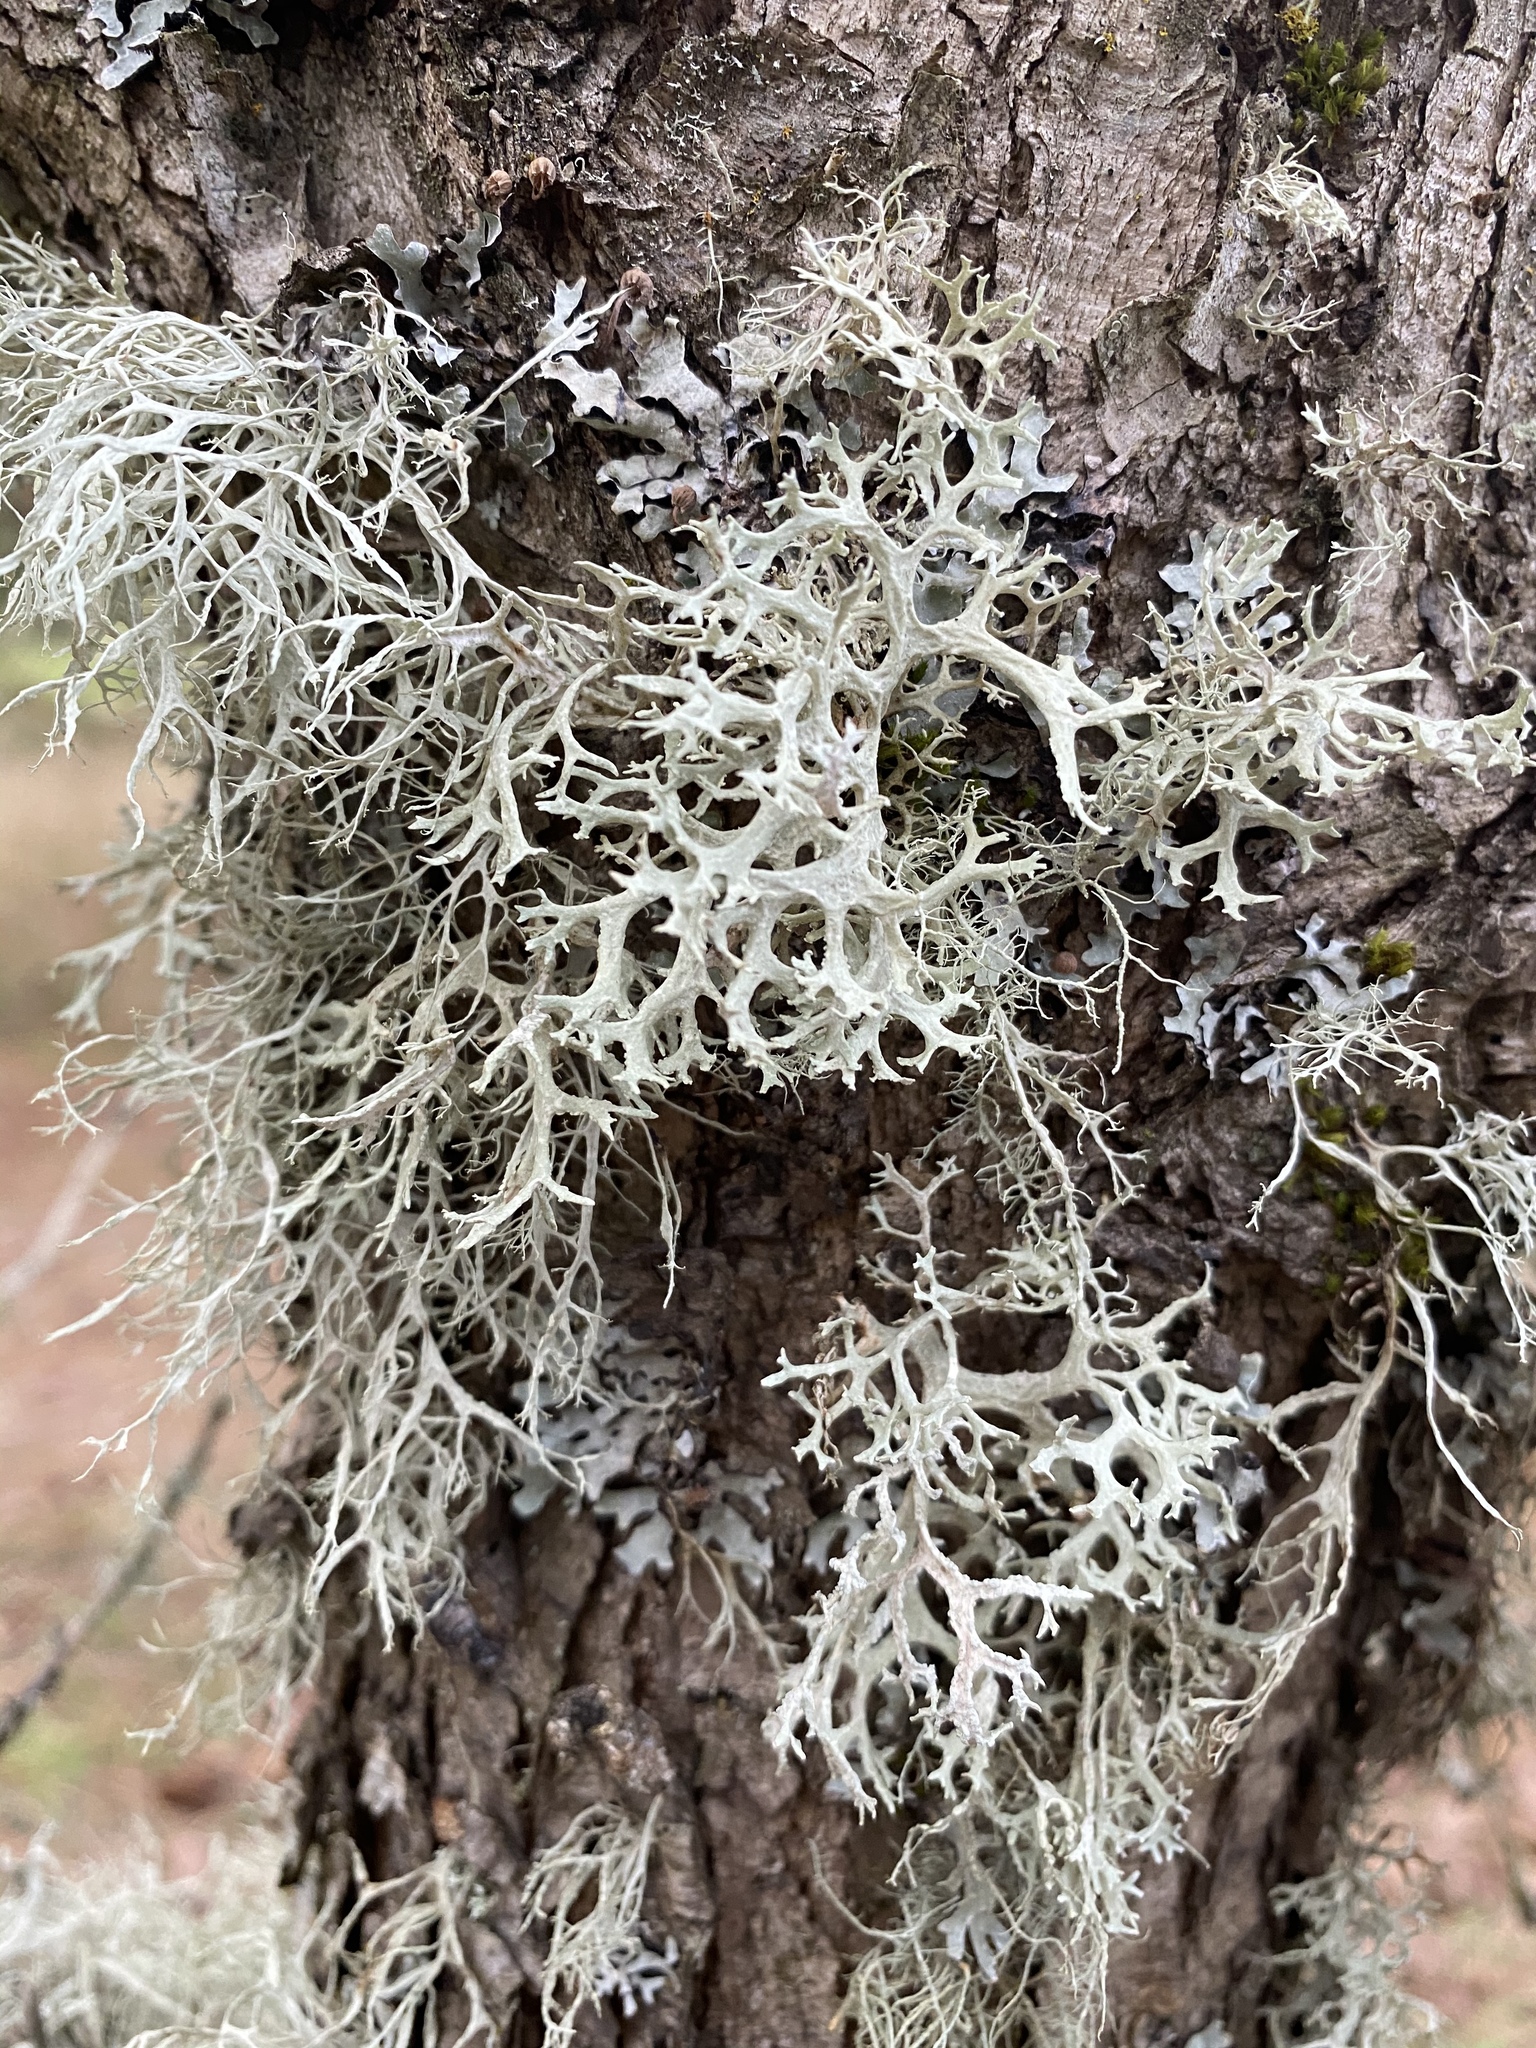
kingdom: Fungi
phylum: Ascomycota
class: Lecanoromycetes
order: Lecanorales
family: Ramalinaceae
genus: Ramalina
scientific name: Ramalina farinacea
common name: Farinose cartilage lichen
